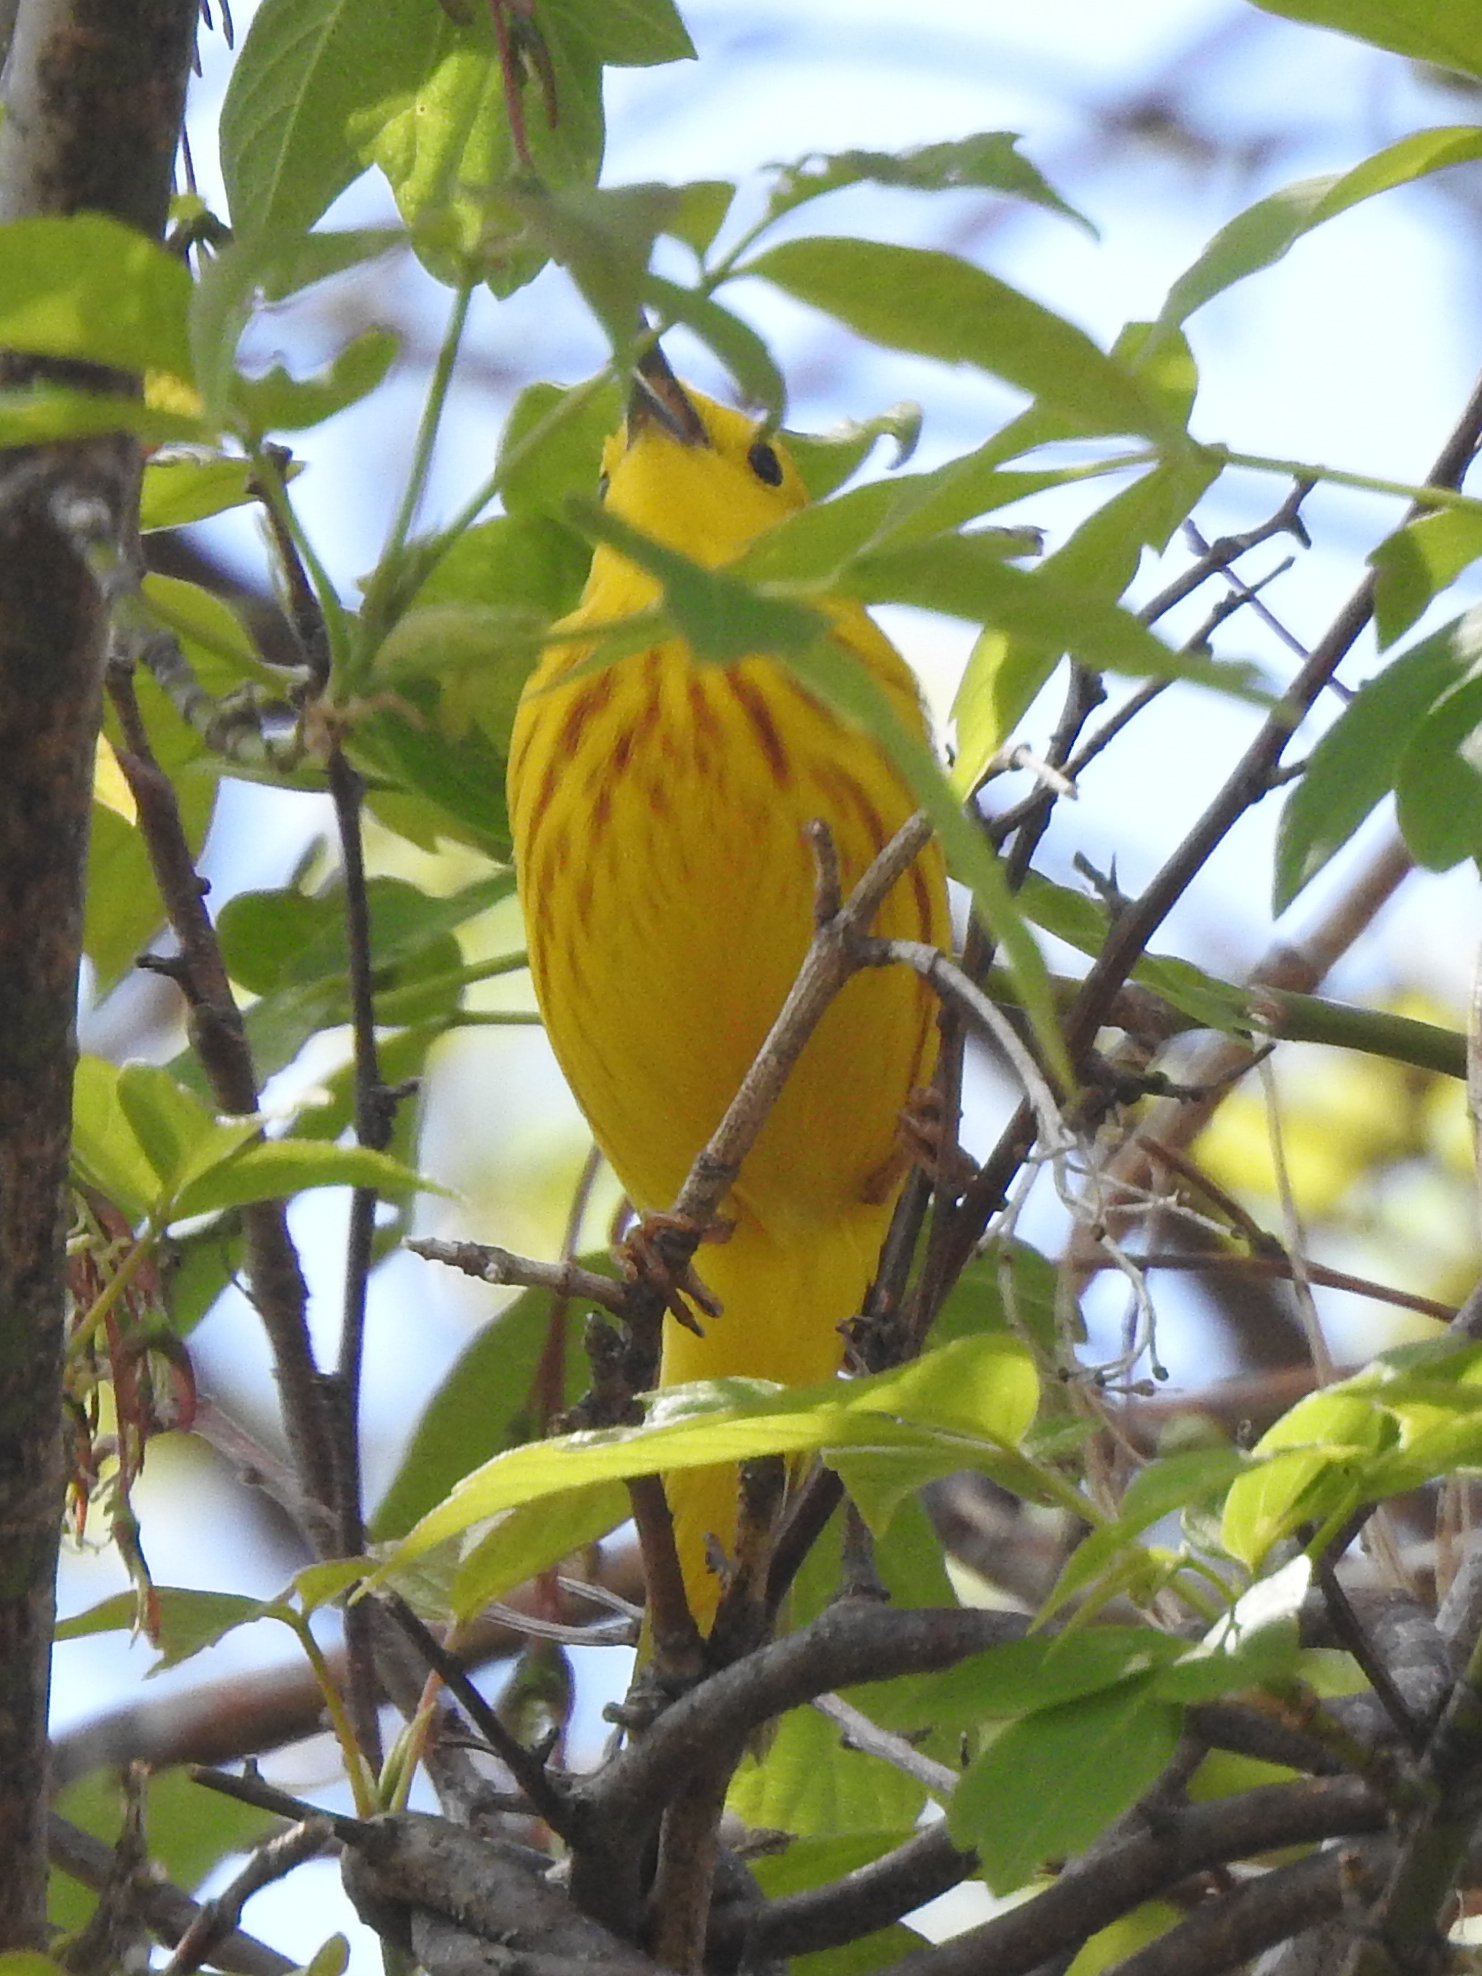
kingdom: Animalia
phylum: Chordata
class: Aves
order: Passeriformes
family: Parulidae
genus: Setophaga
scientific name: Setophaga petechia
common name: Yellow warbler
